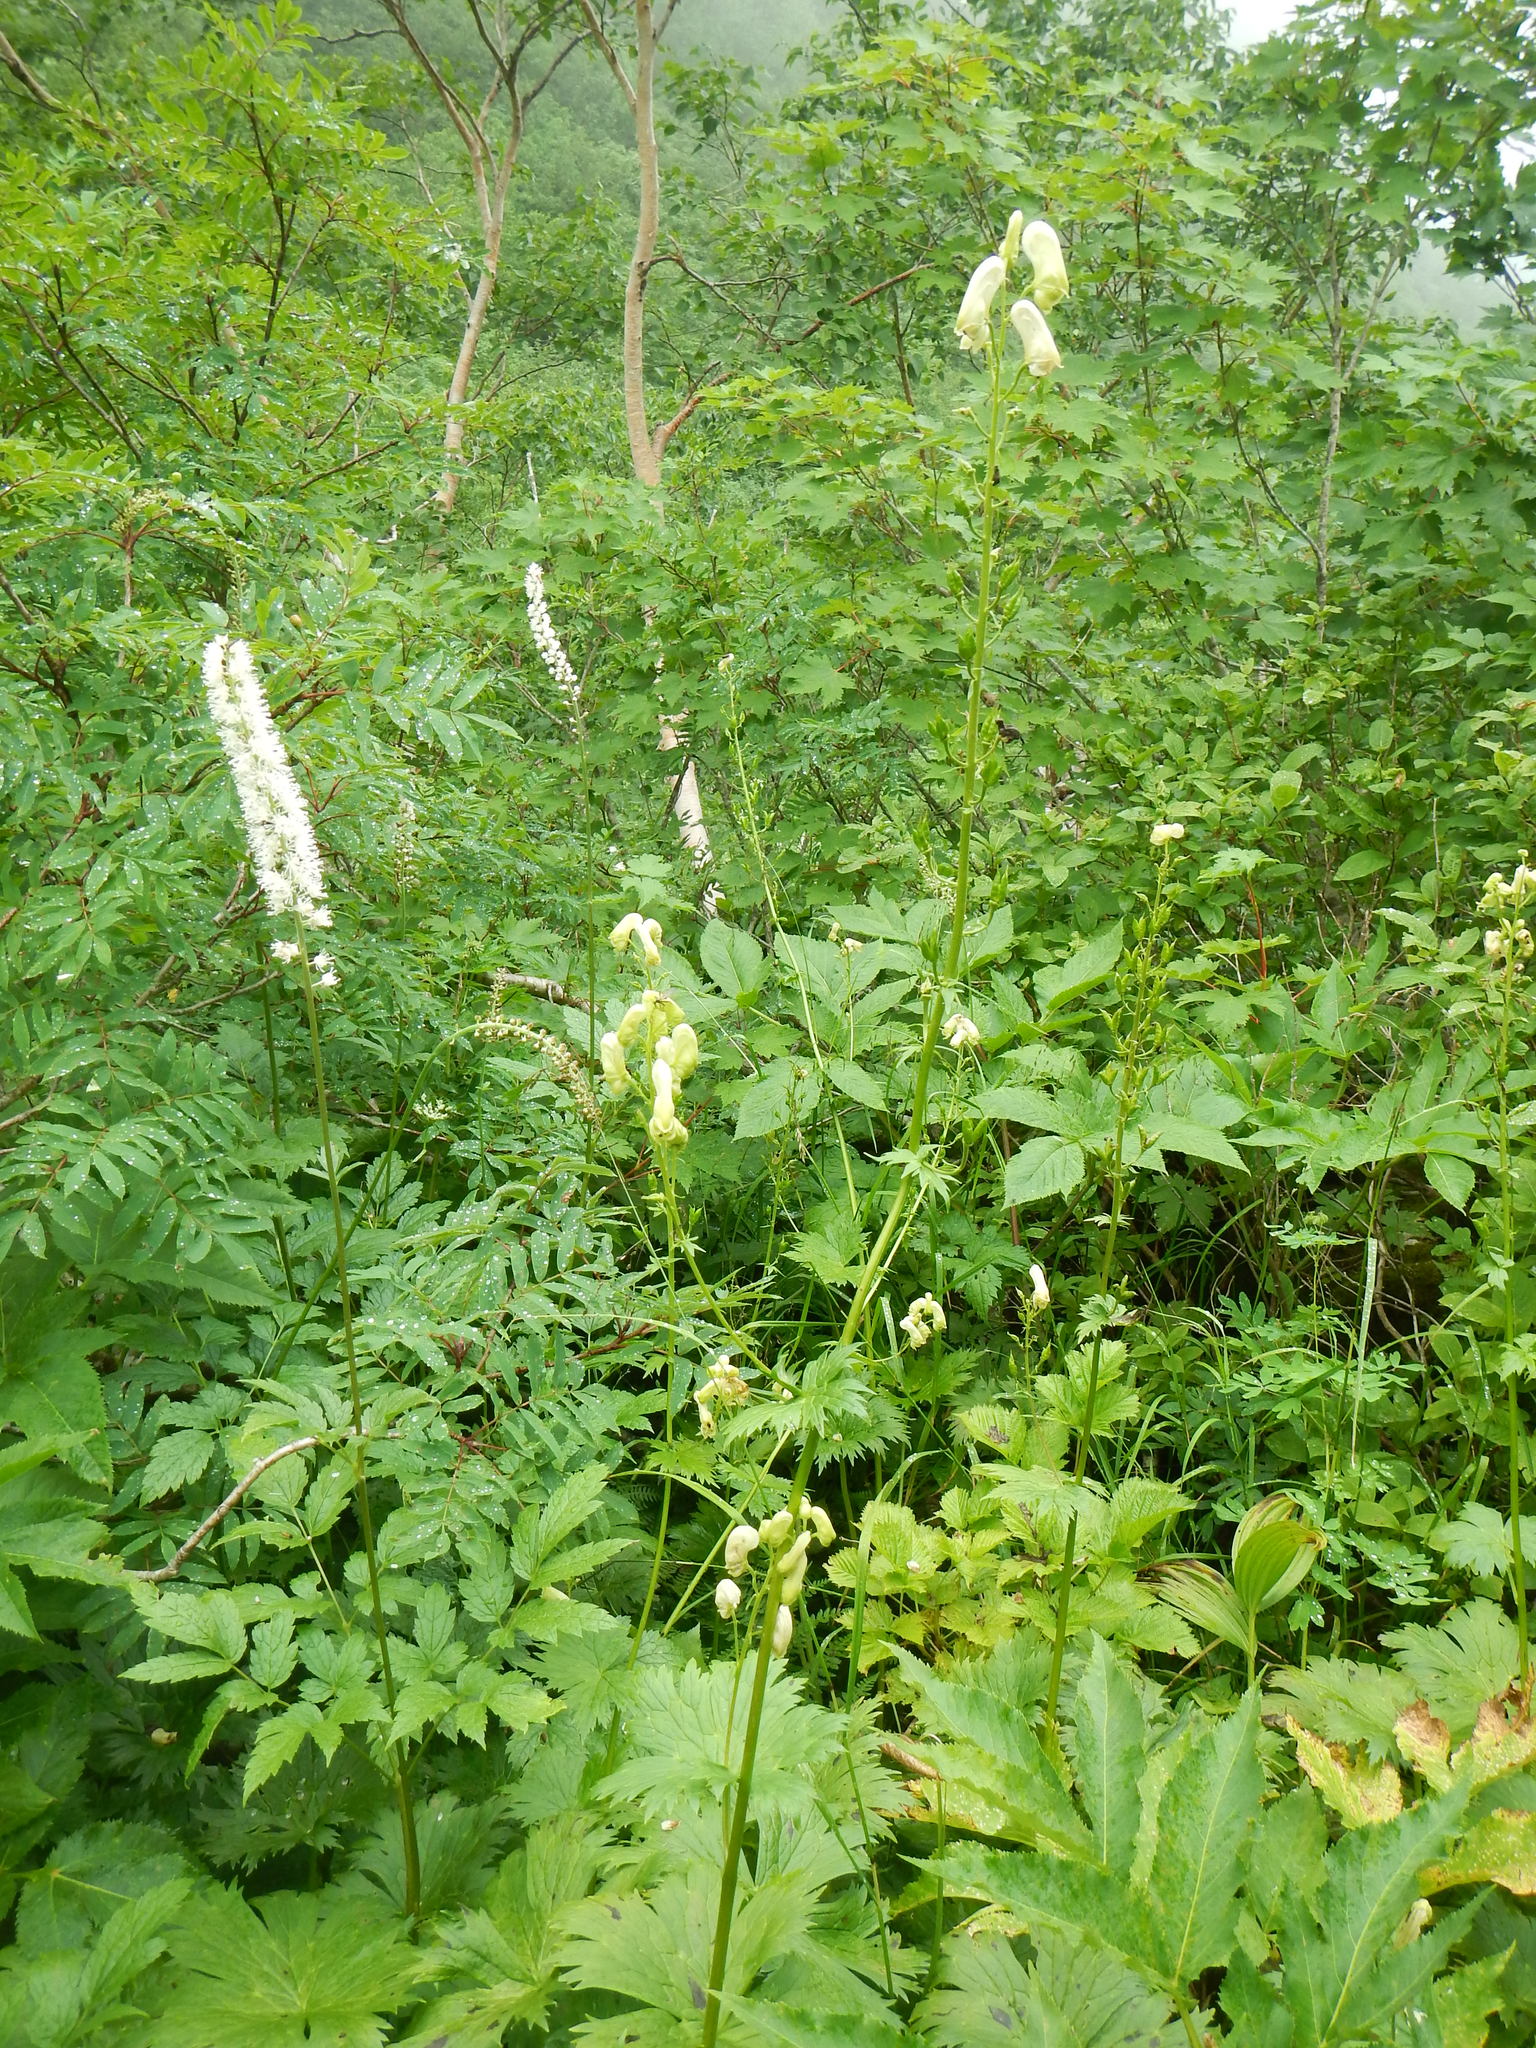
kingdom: Plantae
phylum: Tracheophyta
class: Magnoliopsida
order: Ranunculales
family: Ranunculaceae
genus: Aconitum
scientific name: Aconitum umbrosum
